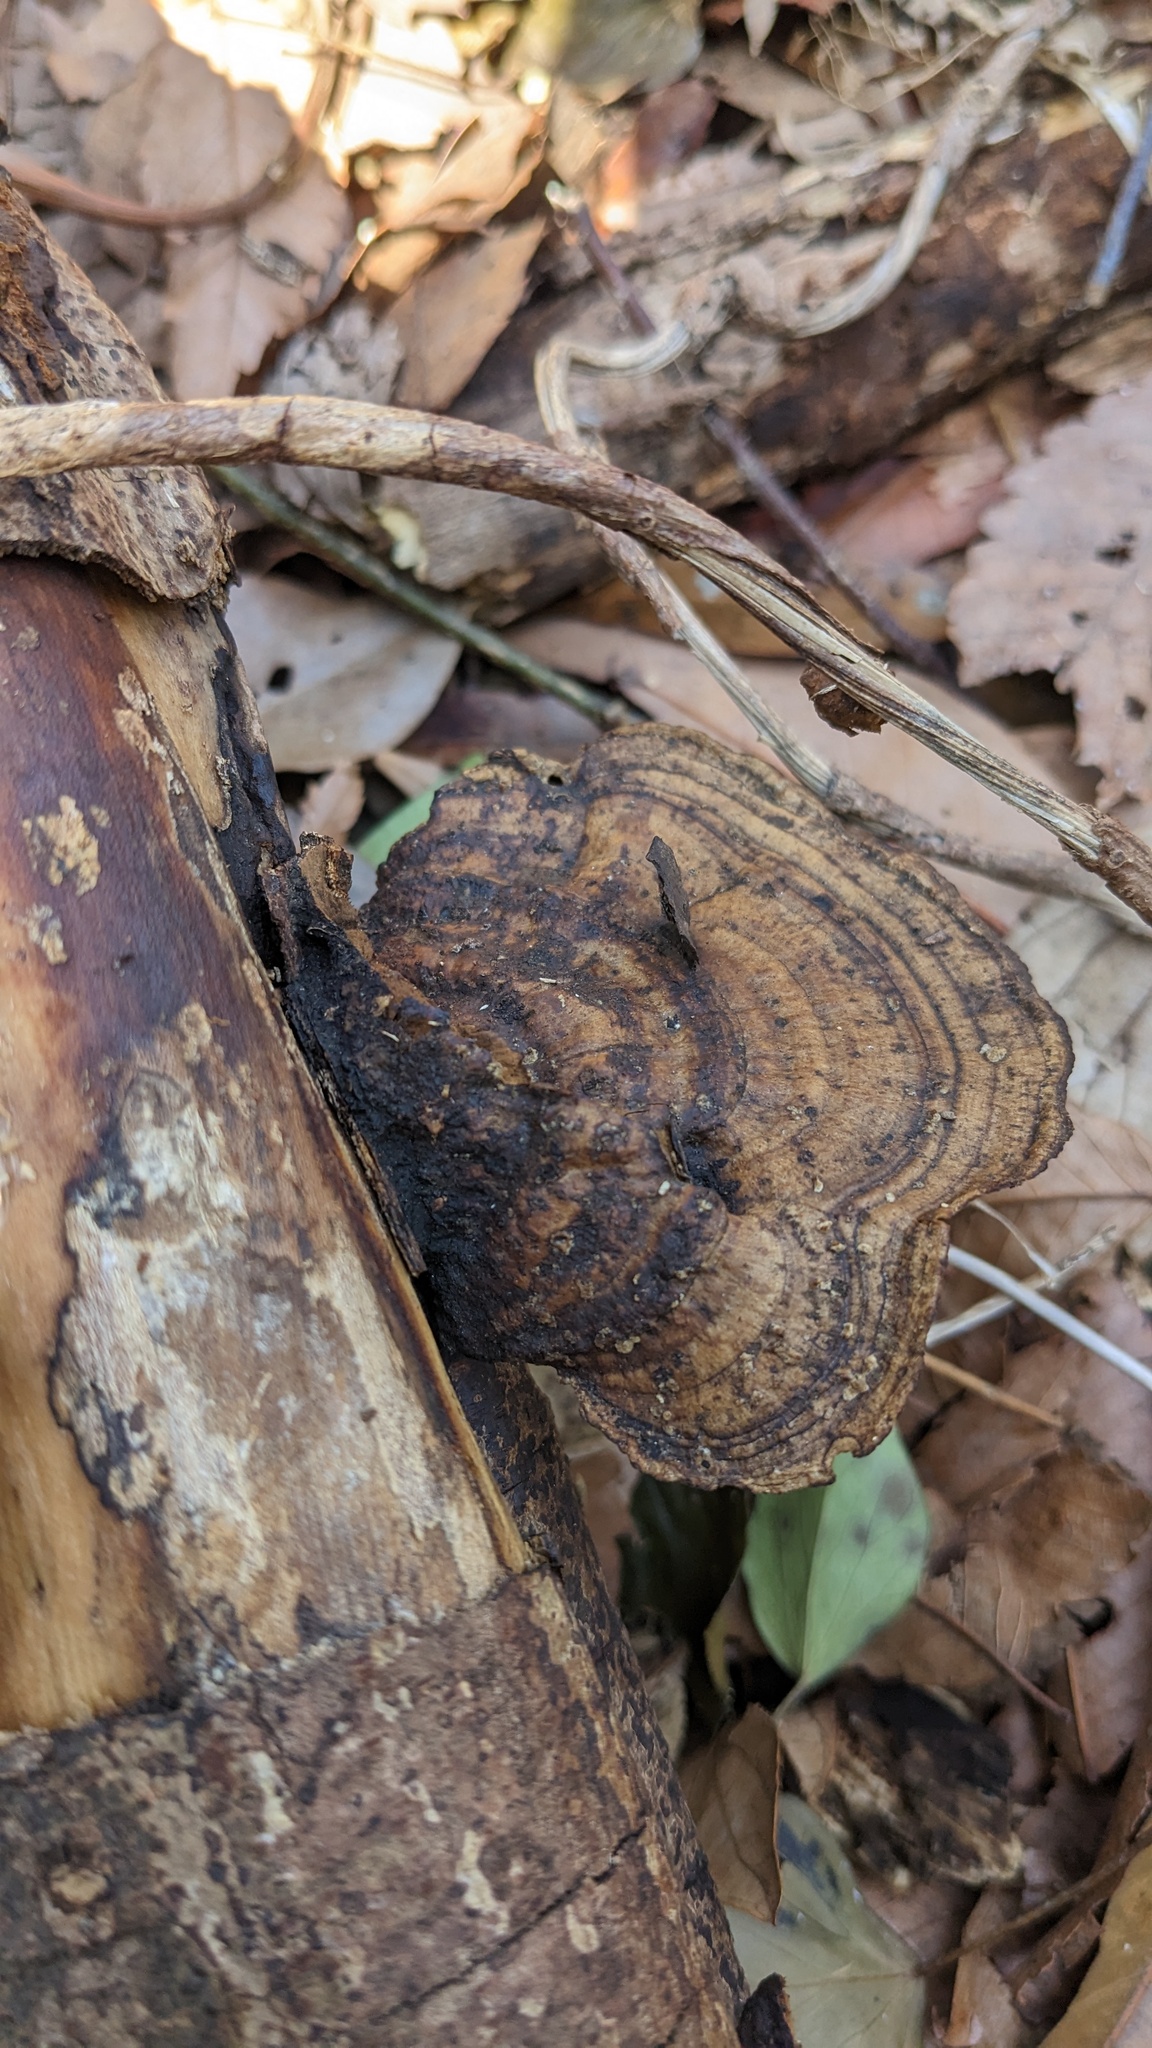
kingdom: Fungi
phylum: Basidiomycota
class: Agaricomycetes
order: Polyporales
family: Polyporaceae
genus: Trametes
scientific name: Trametes strumosa
